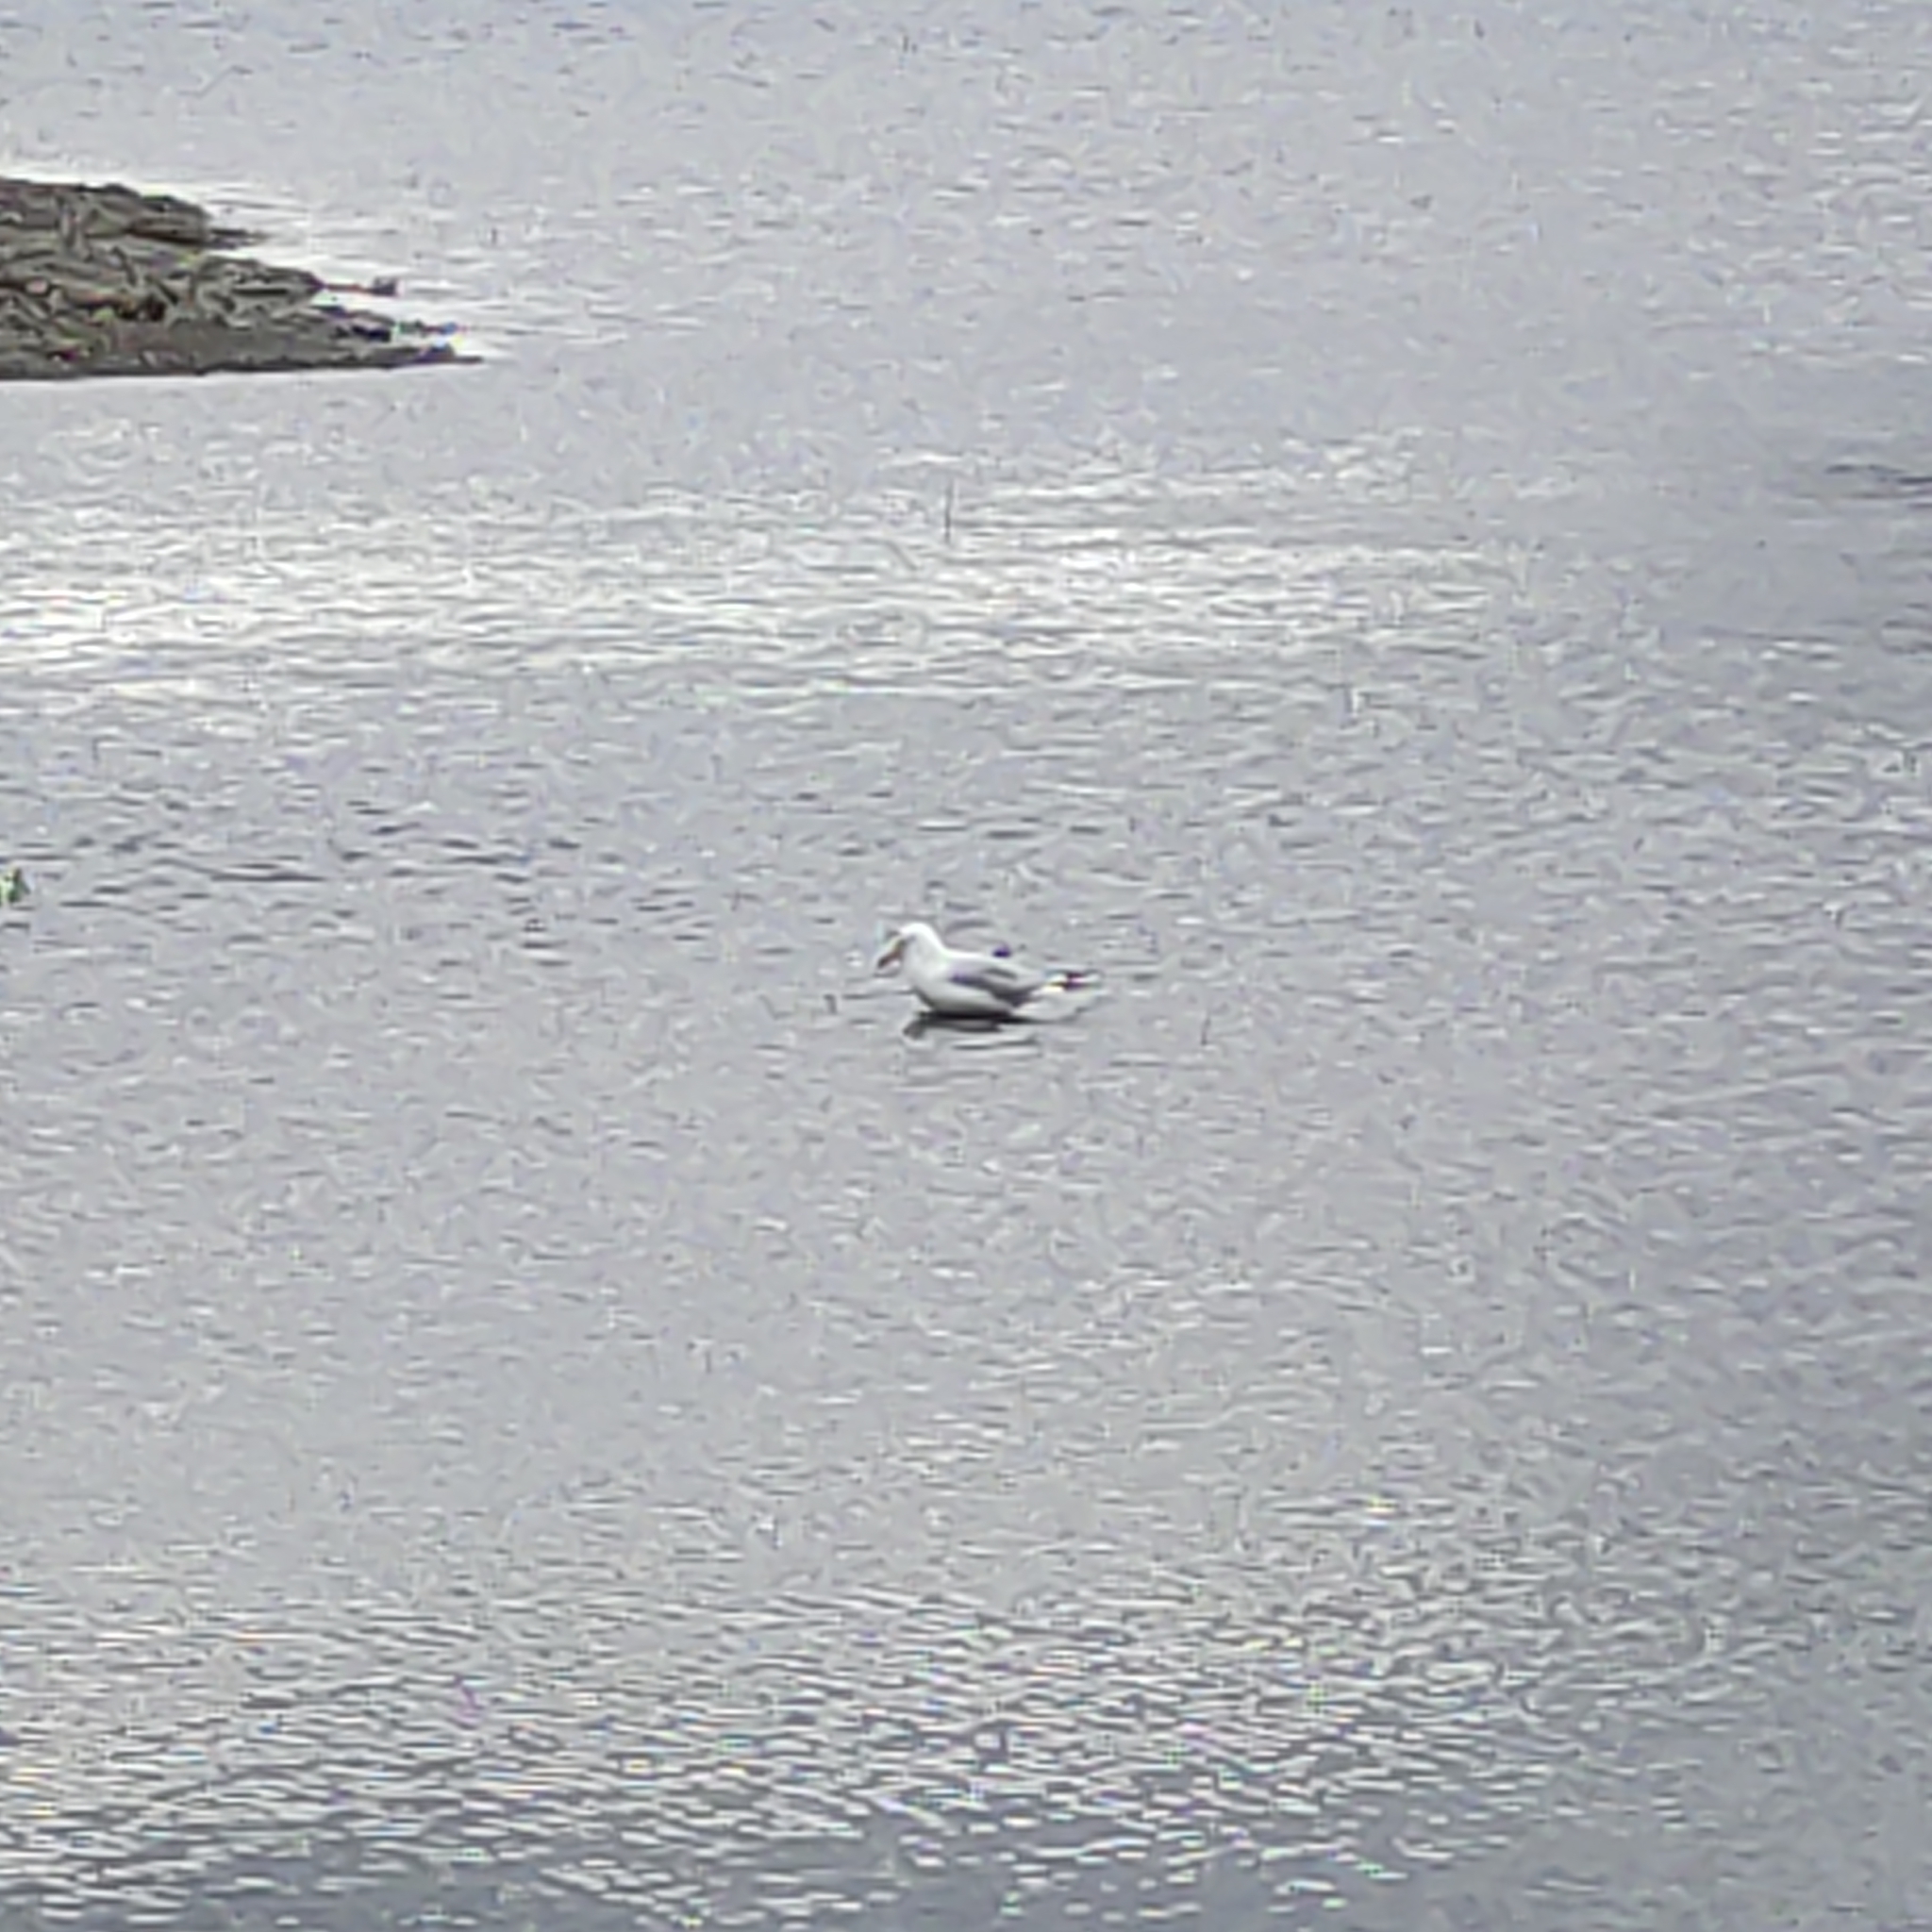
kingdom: Animalia
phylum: Chordata
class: Aves
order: Charadriiformes
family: Laridae
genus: Chroicocephalus
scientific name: Chroicocephalus bulleri
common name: Black-billed gull
